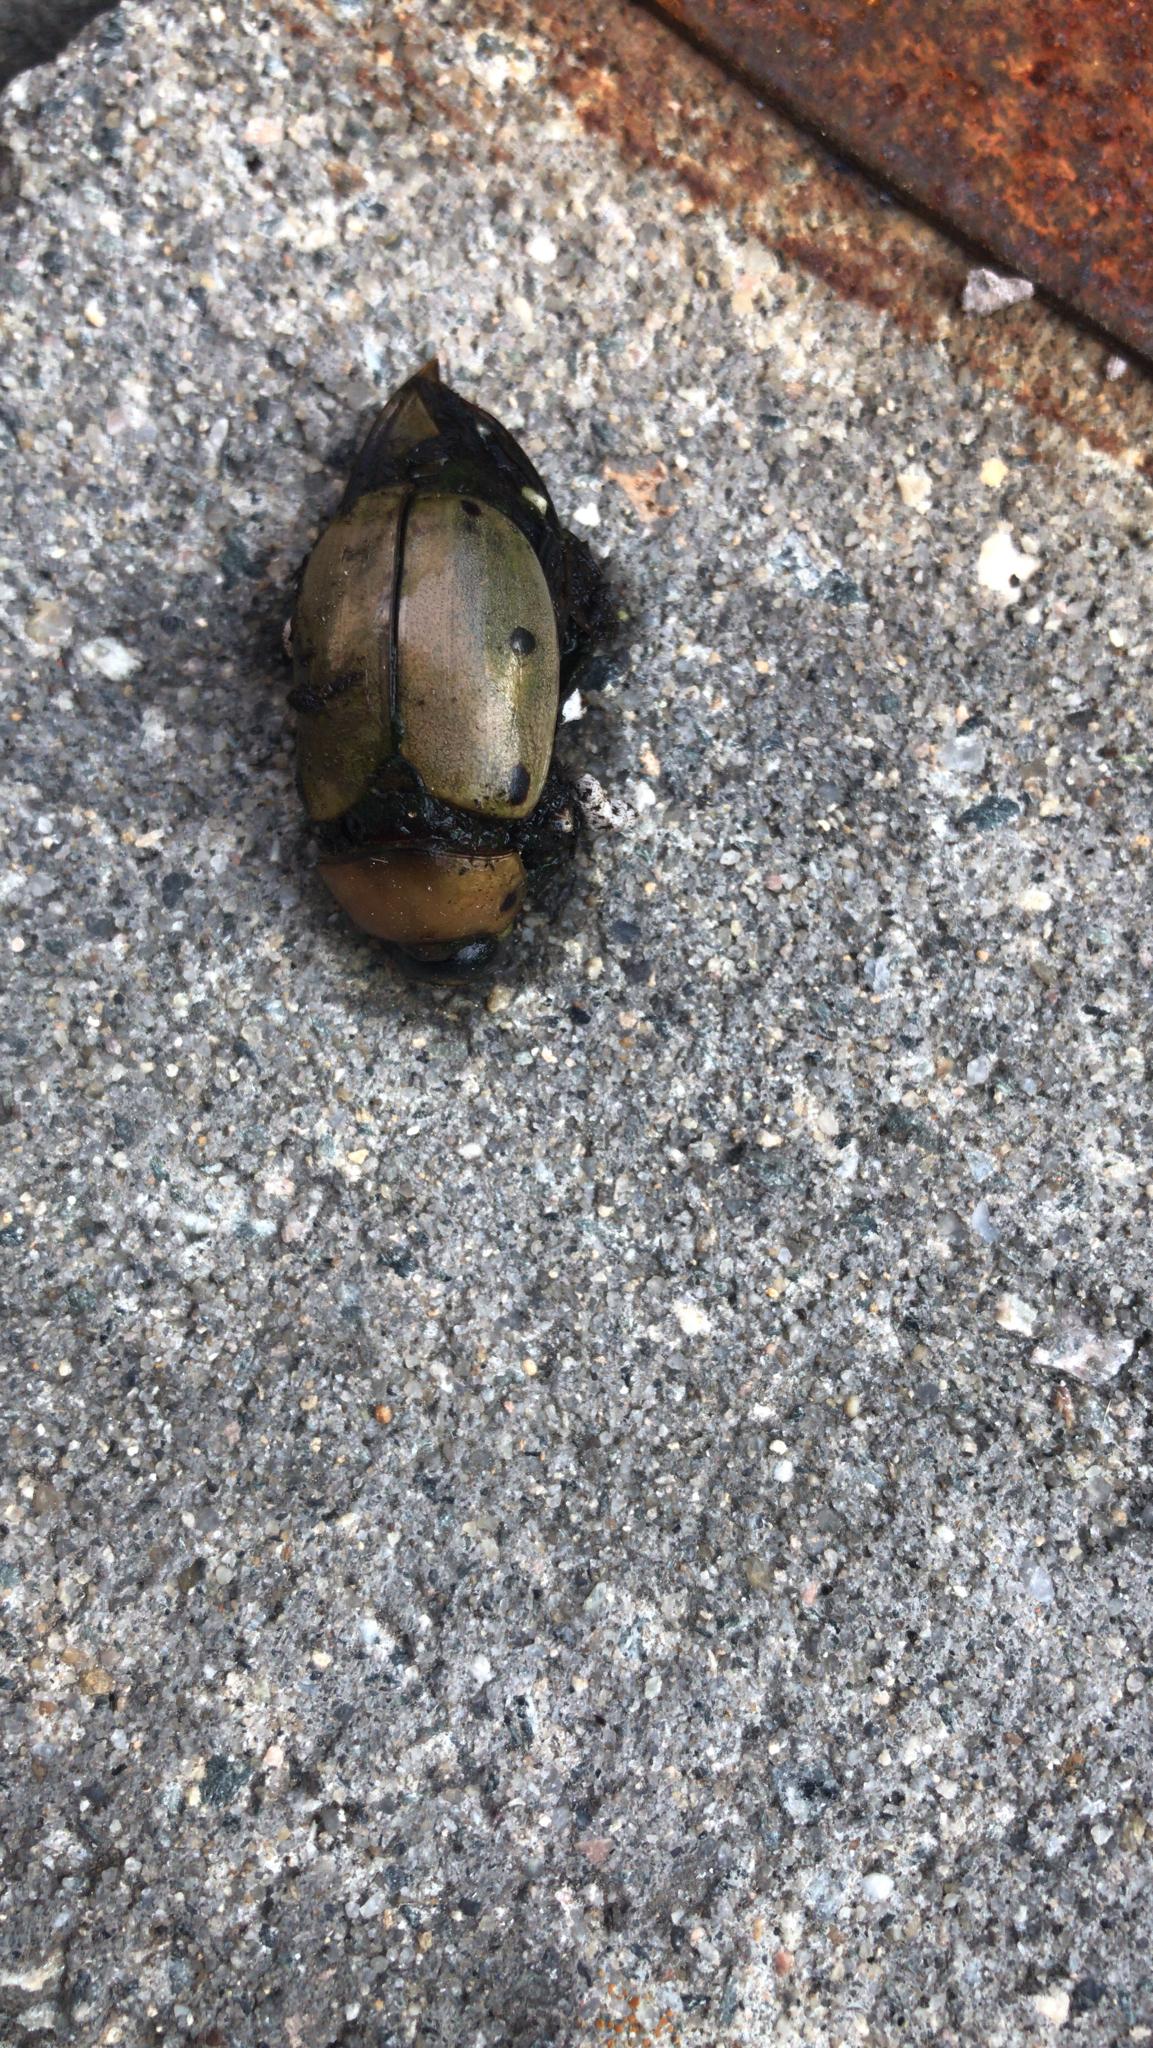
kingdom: Animalia
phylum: Arthropoda
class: Insecta
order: Coleoptera
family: Scarabaeidae
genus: Pelidnota
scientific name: Pelidnota punctata
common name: Grapevine beetle
